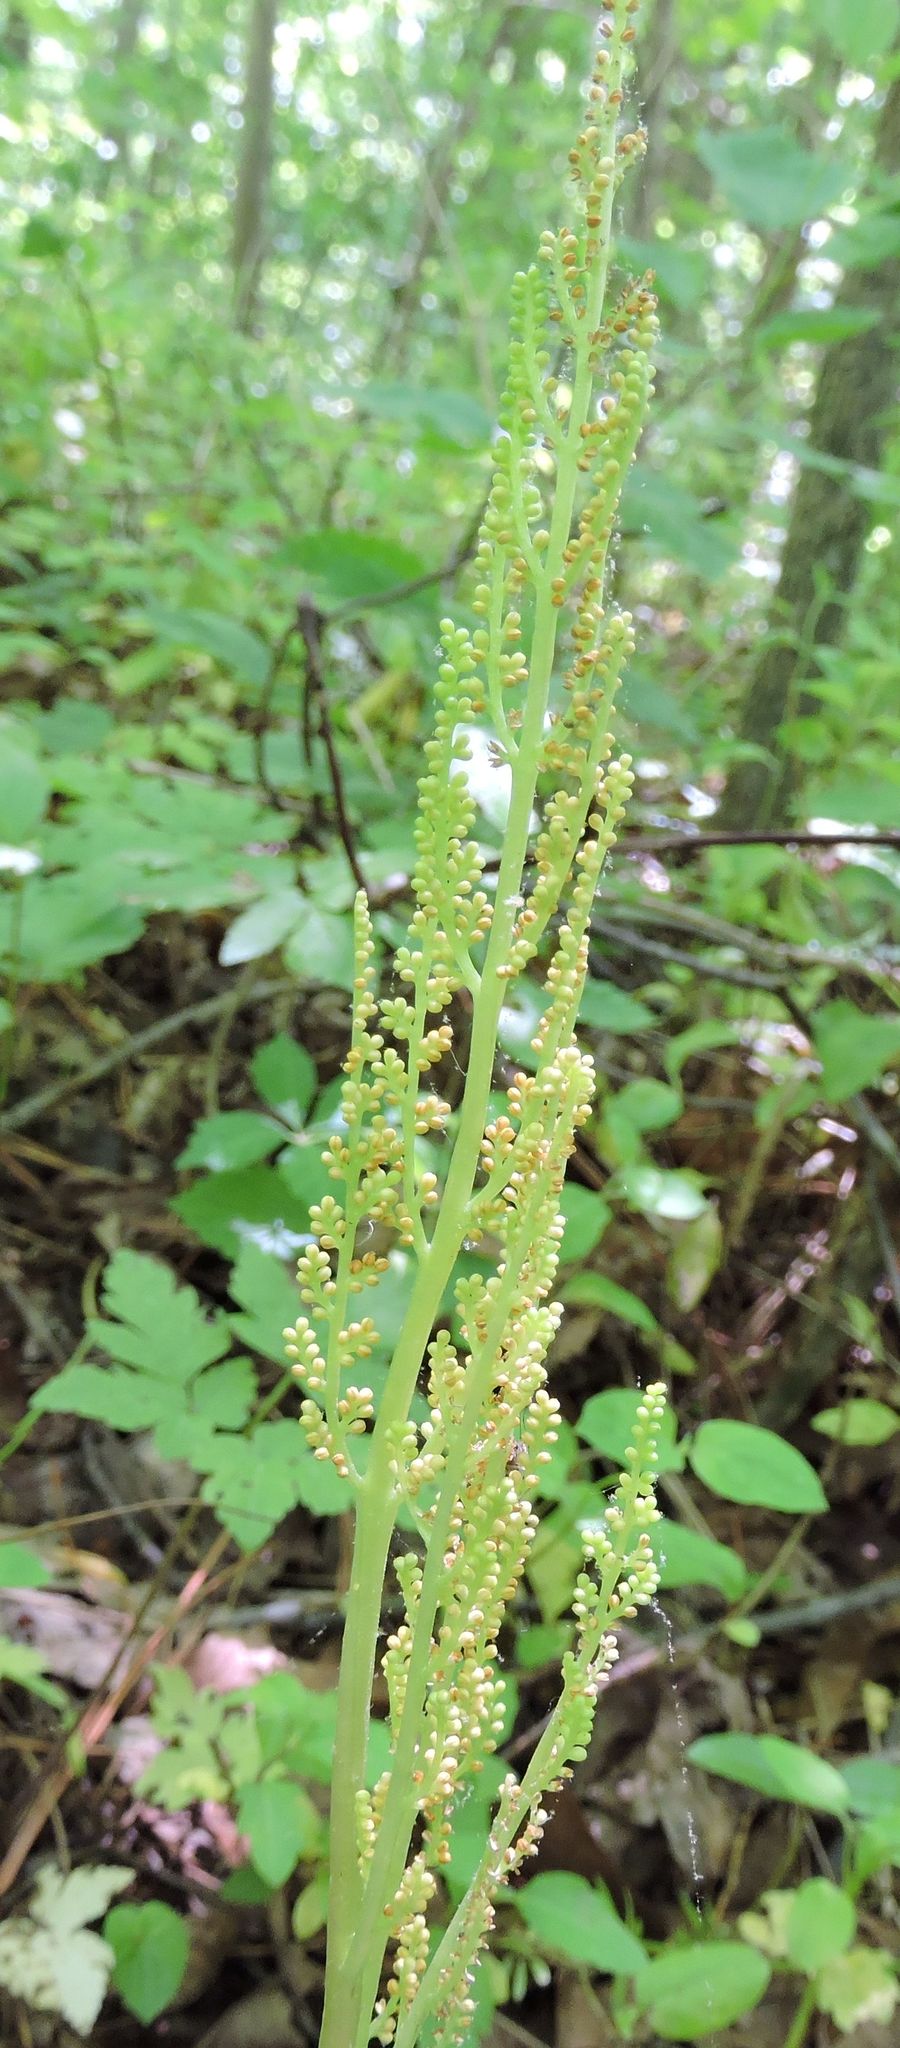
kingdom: Plantae
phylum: Tracheophyta
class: Polypodiopsida
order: Ophioglossales
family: Ophioglossaceae
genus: Botrypus
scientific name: Botrypus virginianus
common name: Common grapefern
